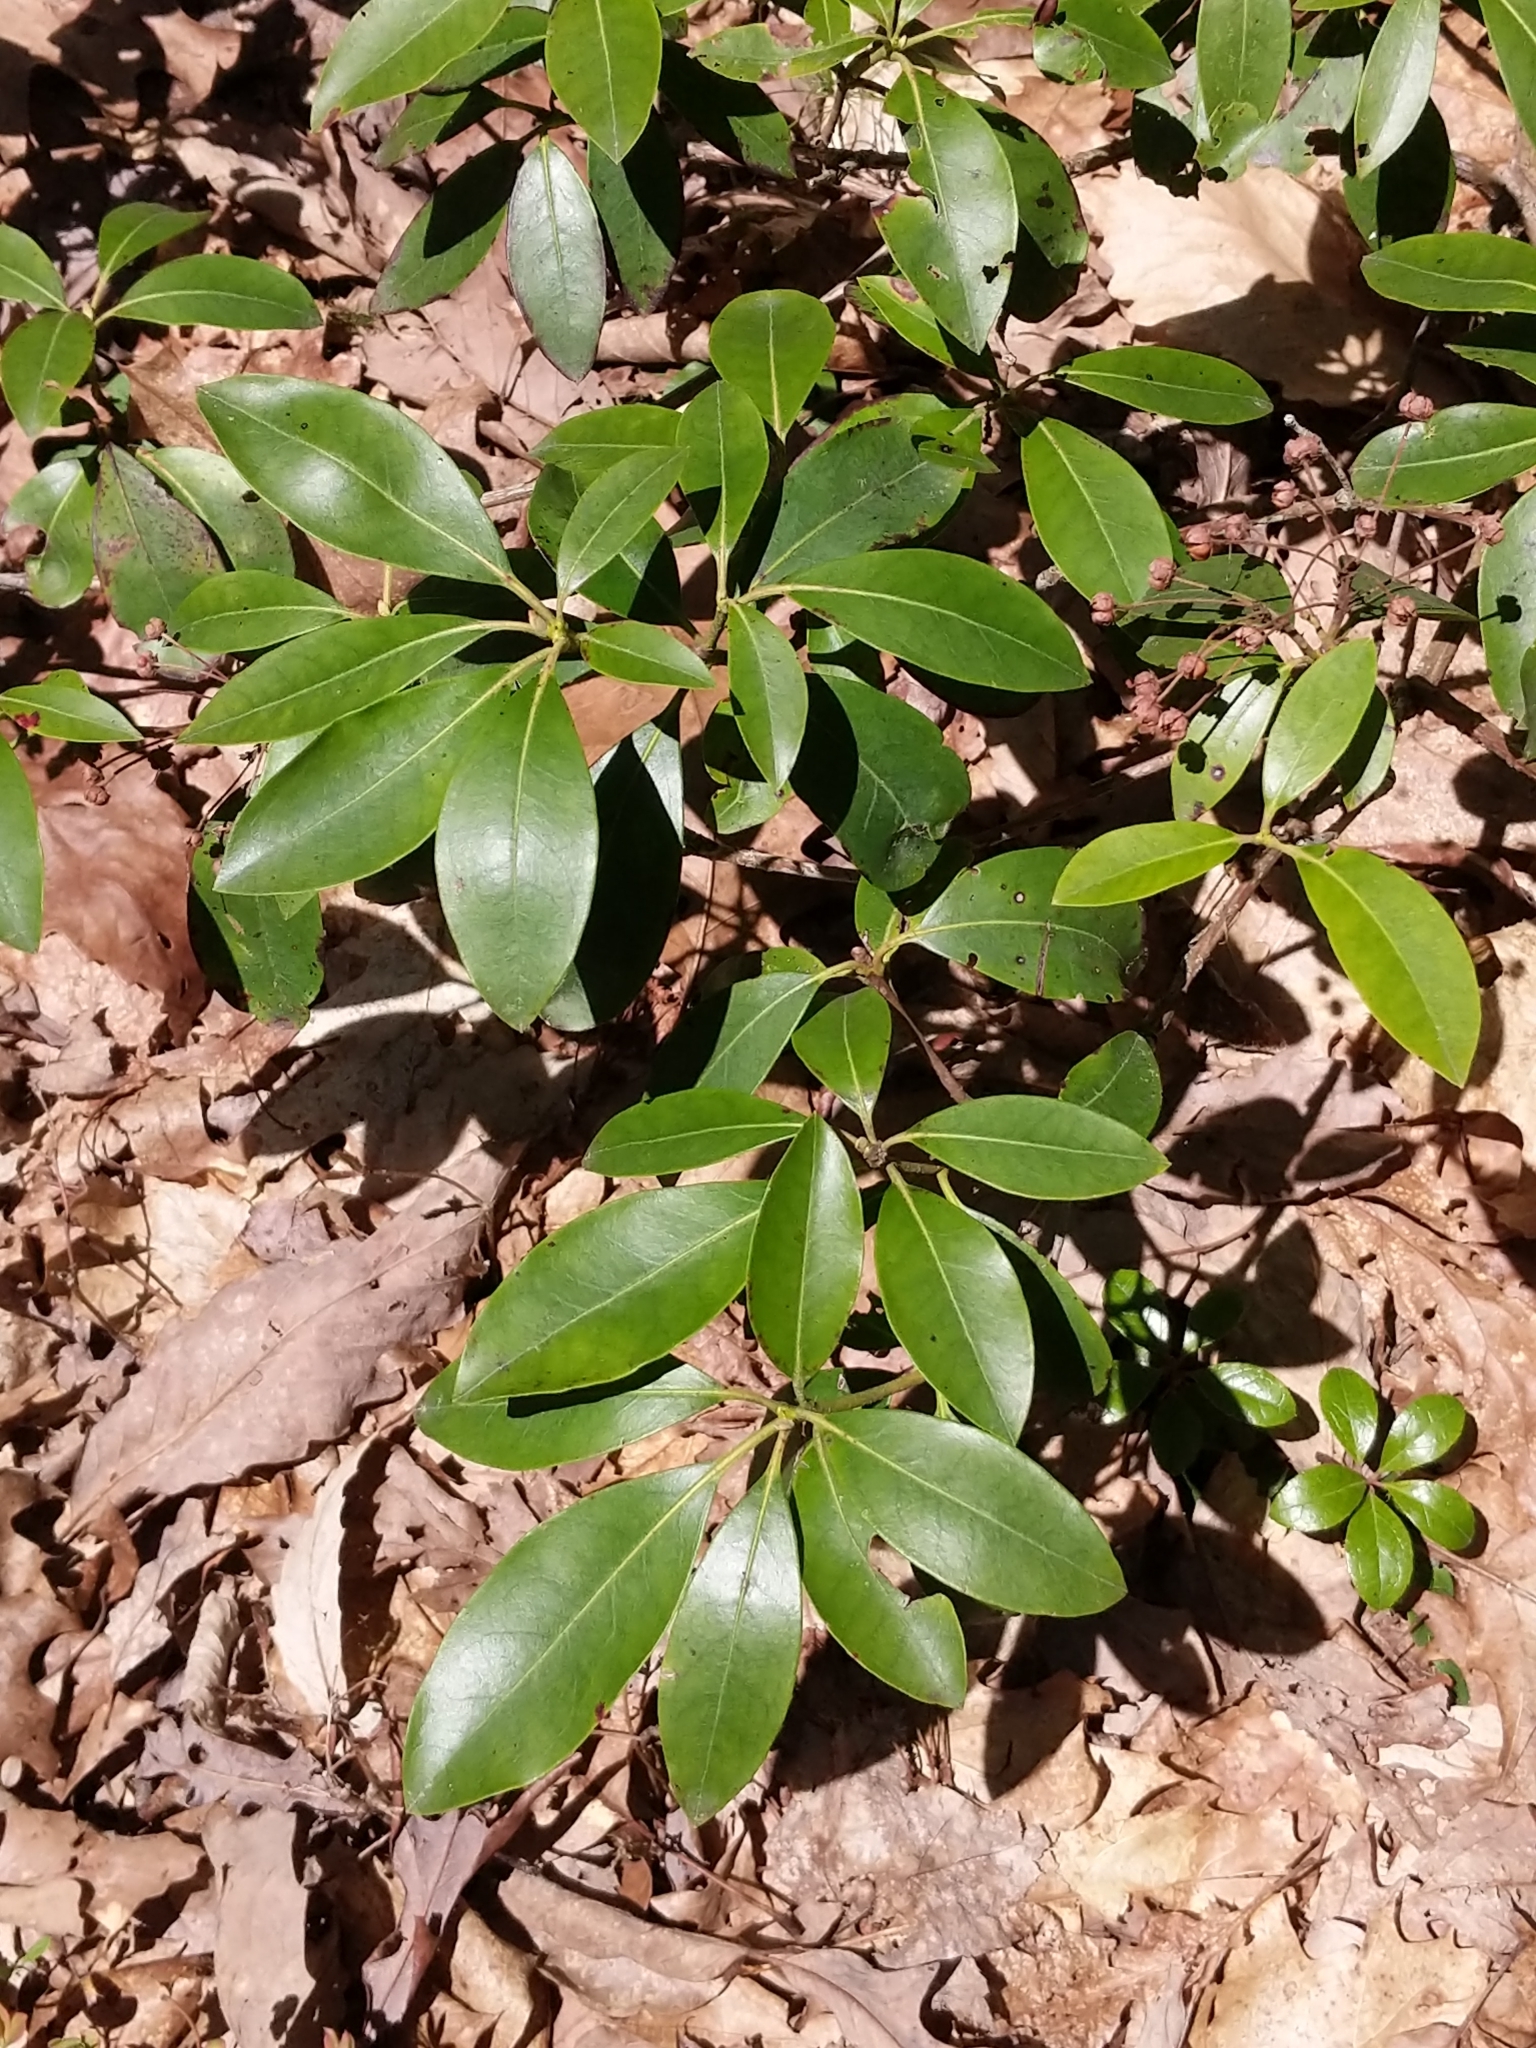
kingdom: Plantae
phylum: Tracheophyta
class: Magnoliopsida
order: Ericales
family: Ericaceae
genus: Kalmia
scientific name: Kalmia latifolia
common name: Mountain-laurel
